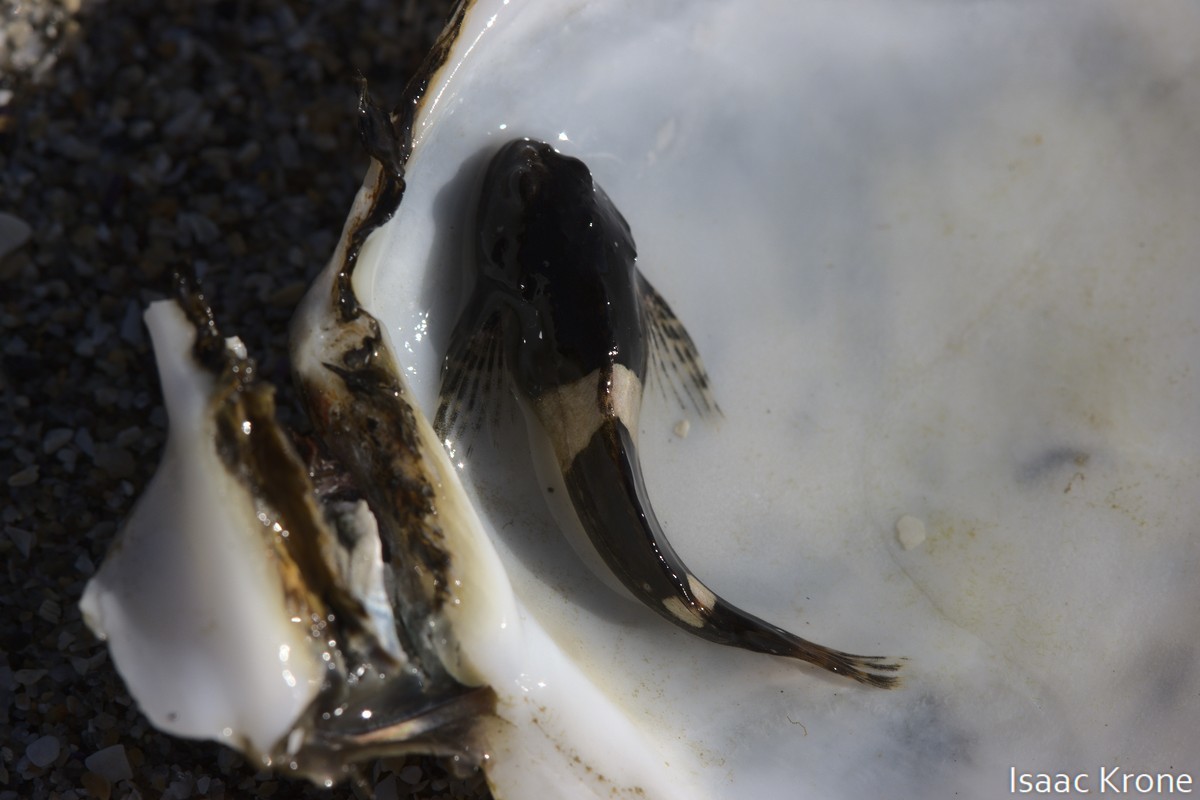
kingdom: Animalia
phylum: Chordata
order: Scorpaeniformes
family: Cottidae
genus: Clinocottus
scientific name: Clinocottus globiceps
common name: Mosshead sculpin
